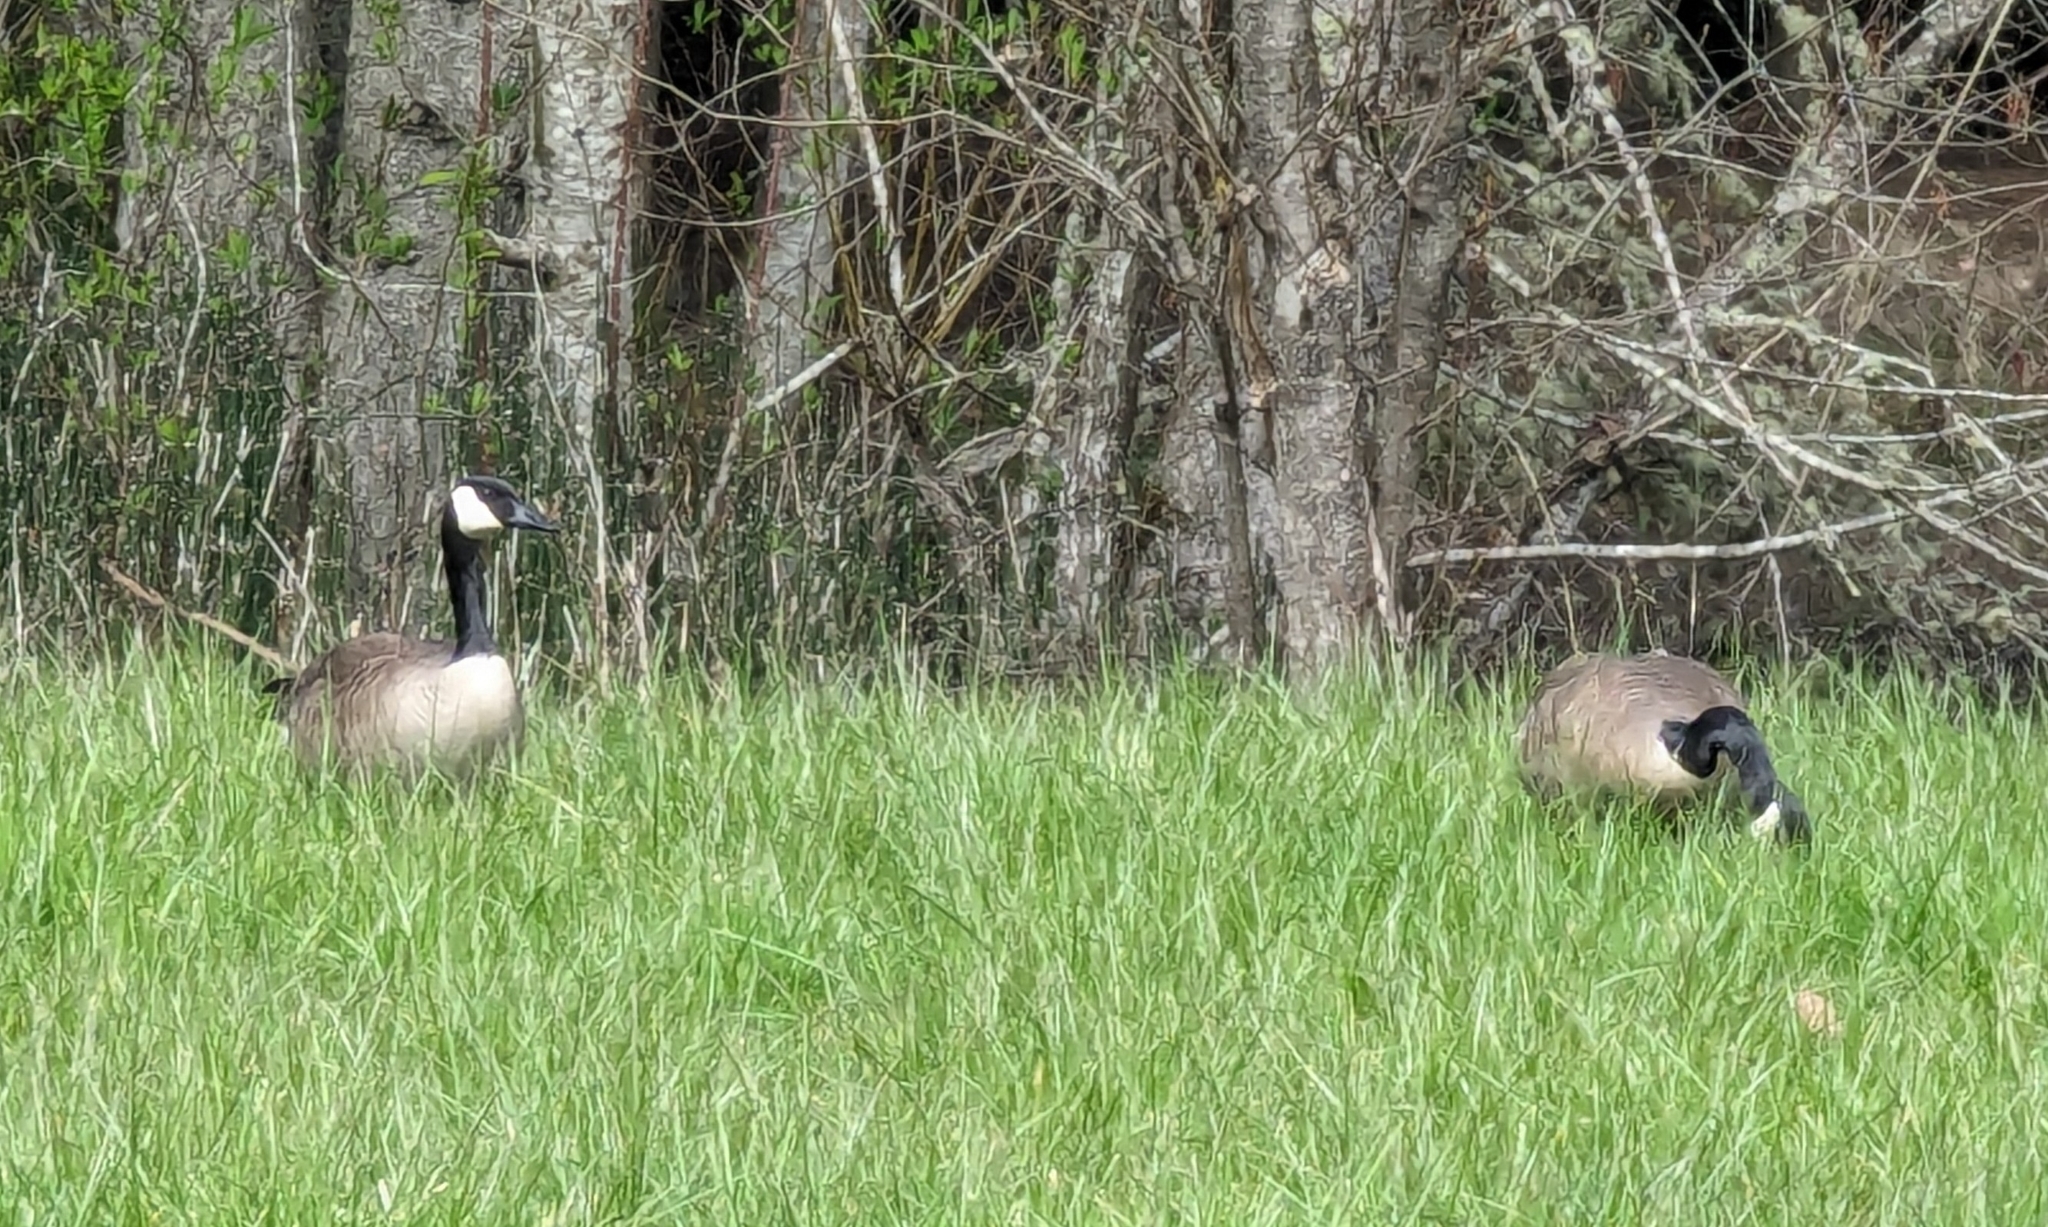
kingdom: Animalia
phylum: Chordata
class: Aves
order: Anseriformes
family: Anatidae
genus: Branta
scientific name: Branta canadensis
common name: Canada goose
